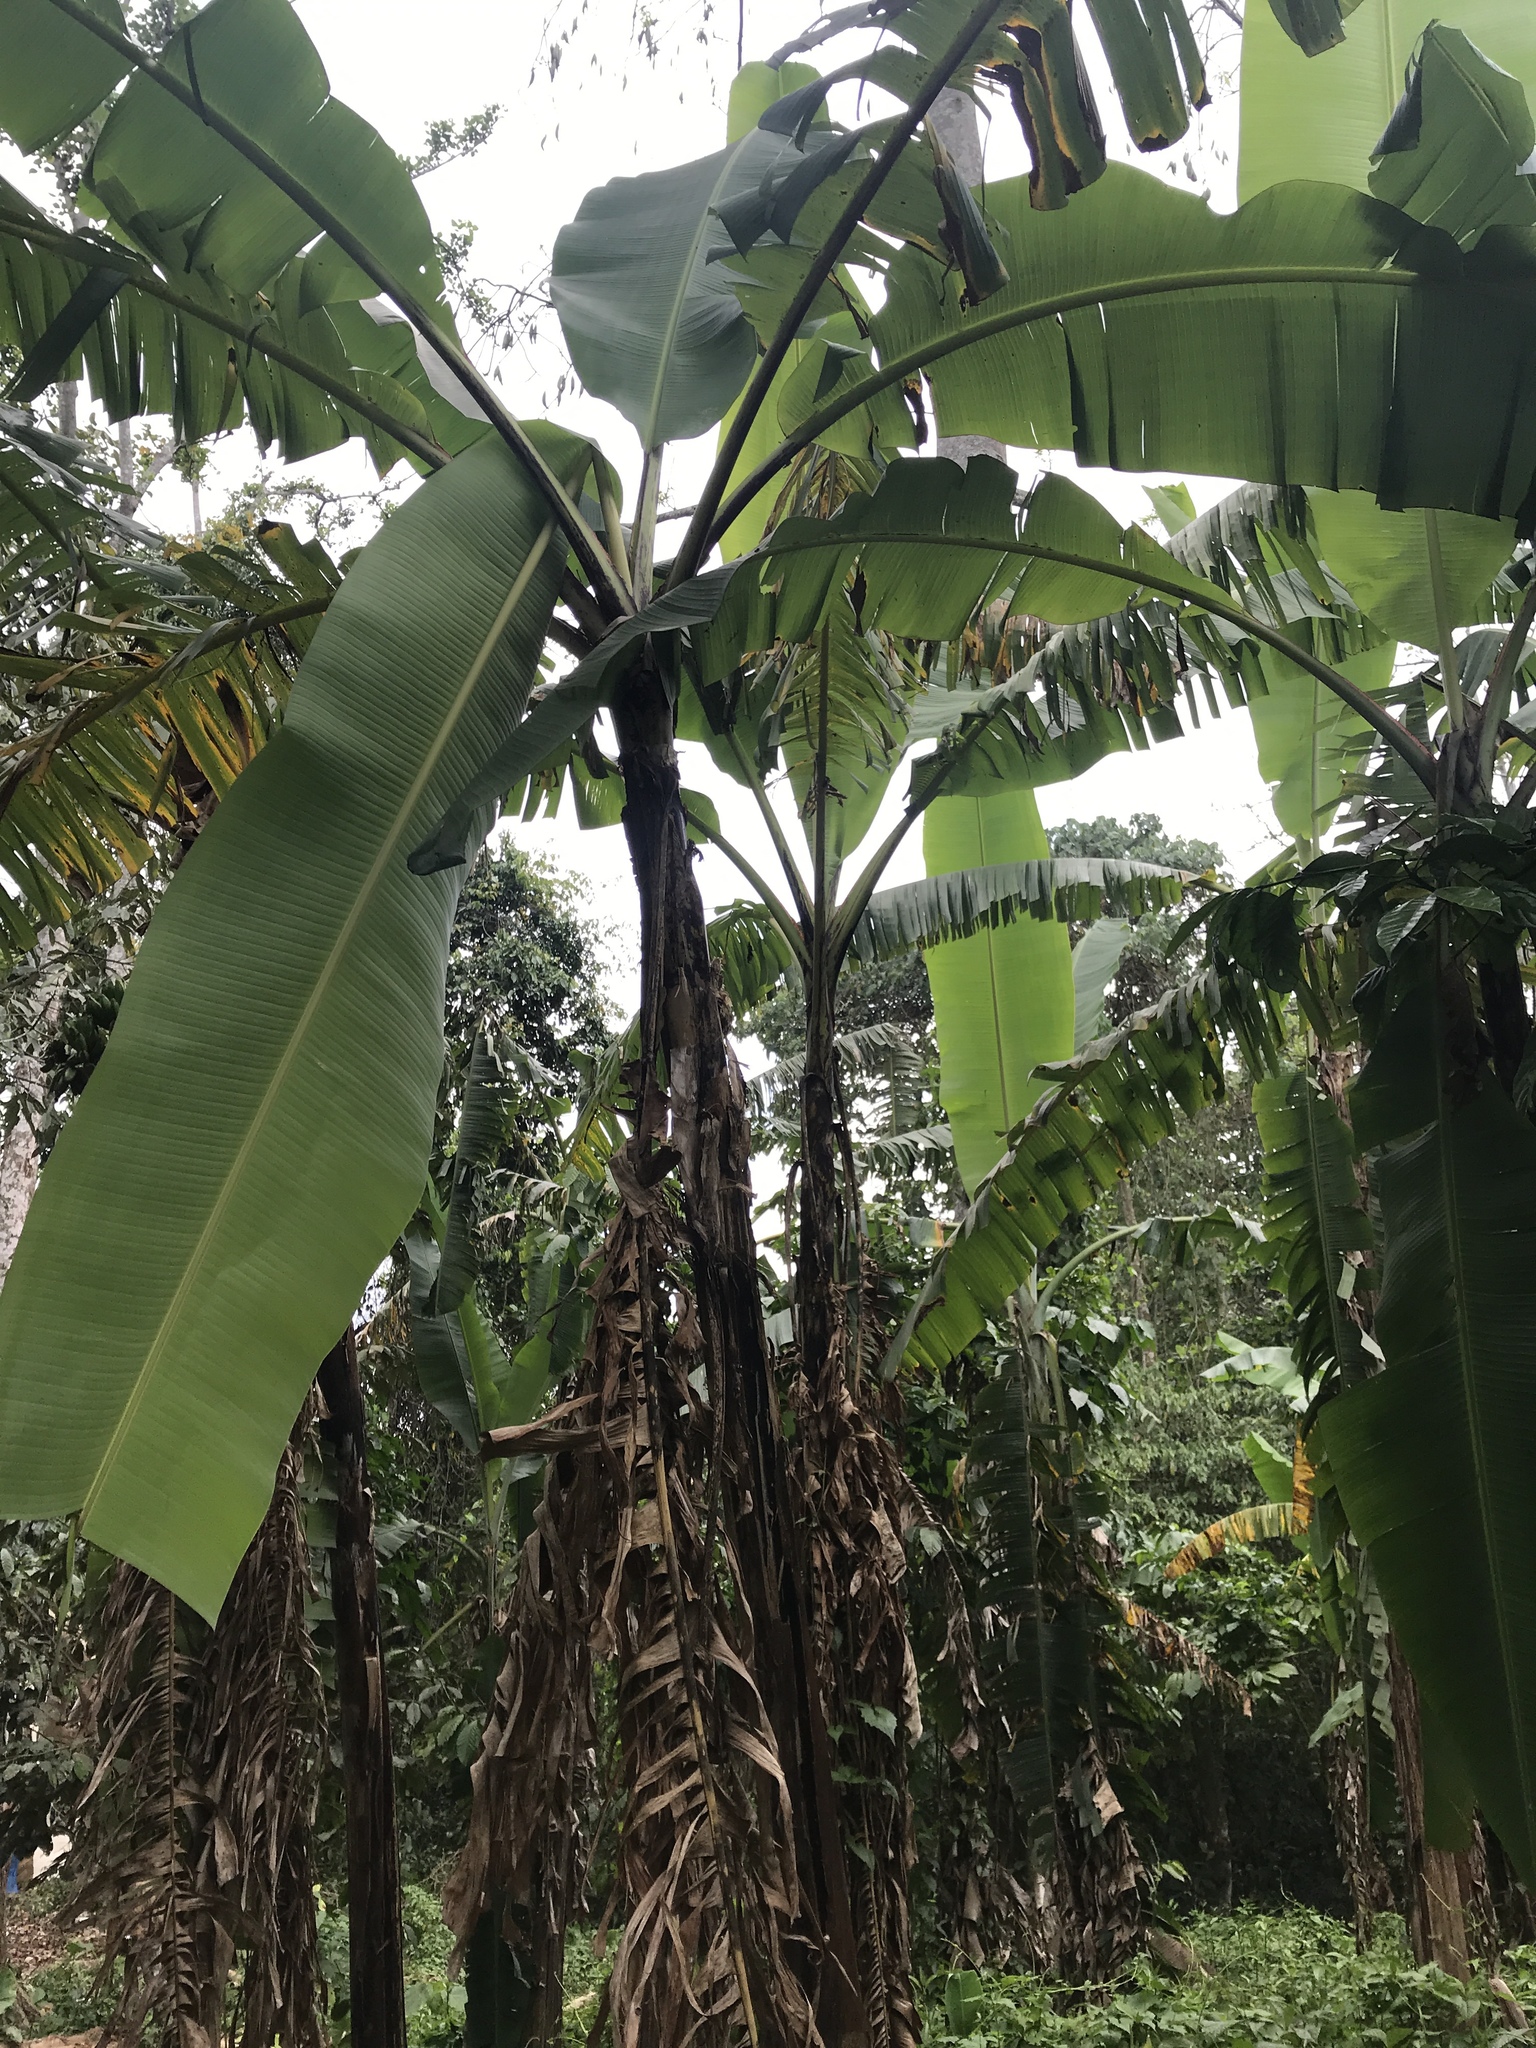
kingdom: Plantae
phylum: Tracheophyta
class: Liliopsida
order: Zingiberales
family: Musaceae
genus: Musa
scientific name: Musa paradisiaca
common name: French plantain
